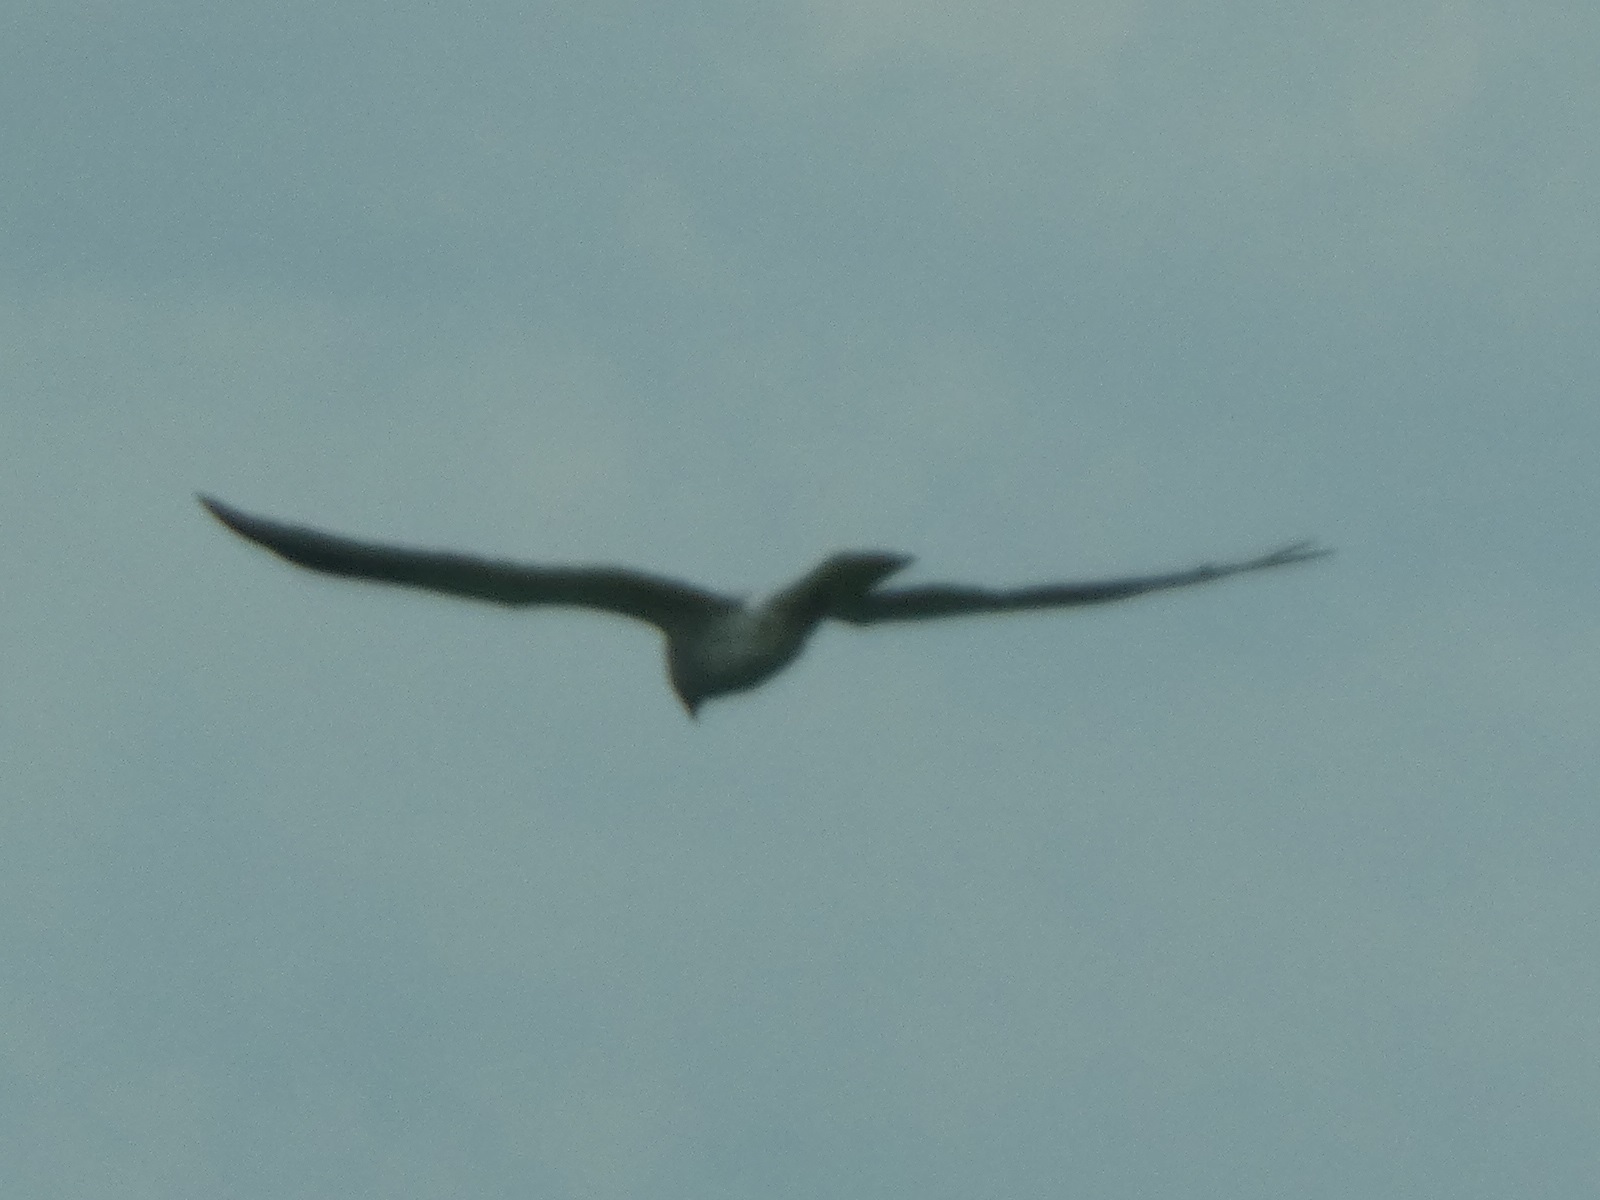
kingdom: Animalia
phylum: Chordata
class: Aves
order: Accipitriformes
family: Accipitridae
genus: Circus
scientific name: Circus cyaneus
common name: Hen harrier
